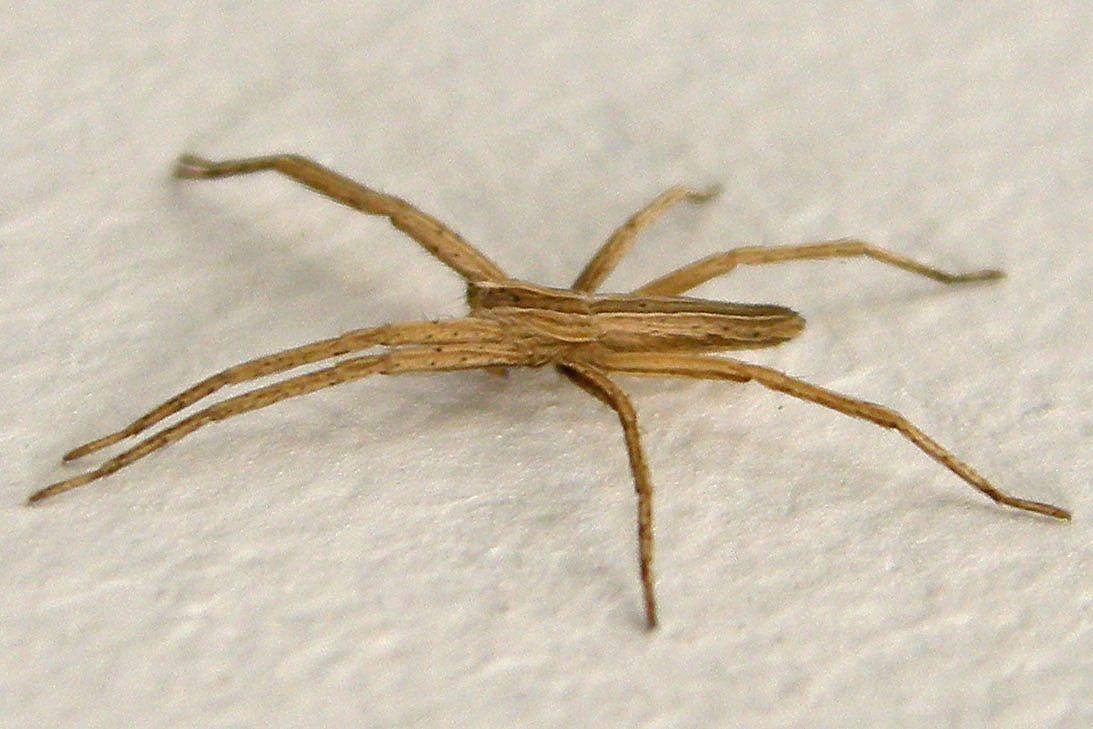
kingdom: Animalia
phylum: Arthropoda
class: Arachnida
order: Araneae
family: Pisauridae
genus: Pisaurina
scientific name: Pisaurina dubia
